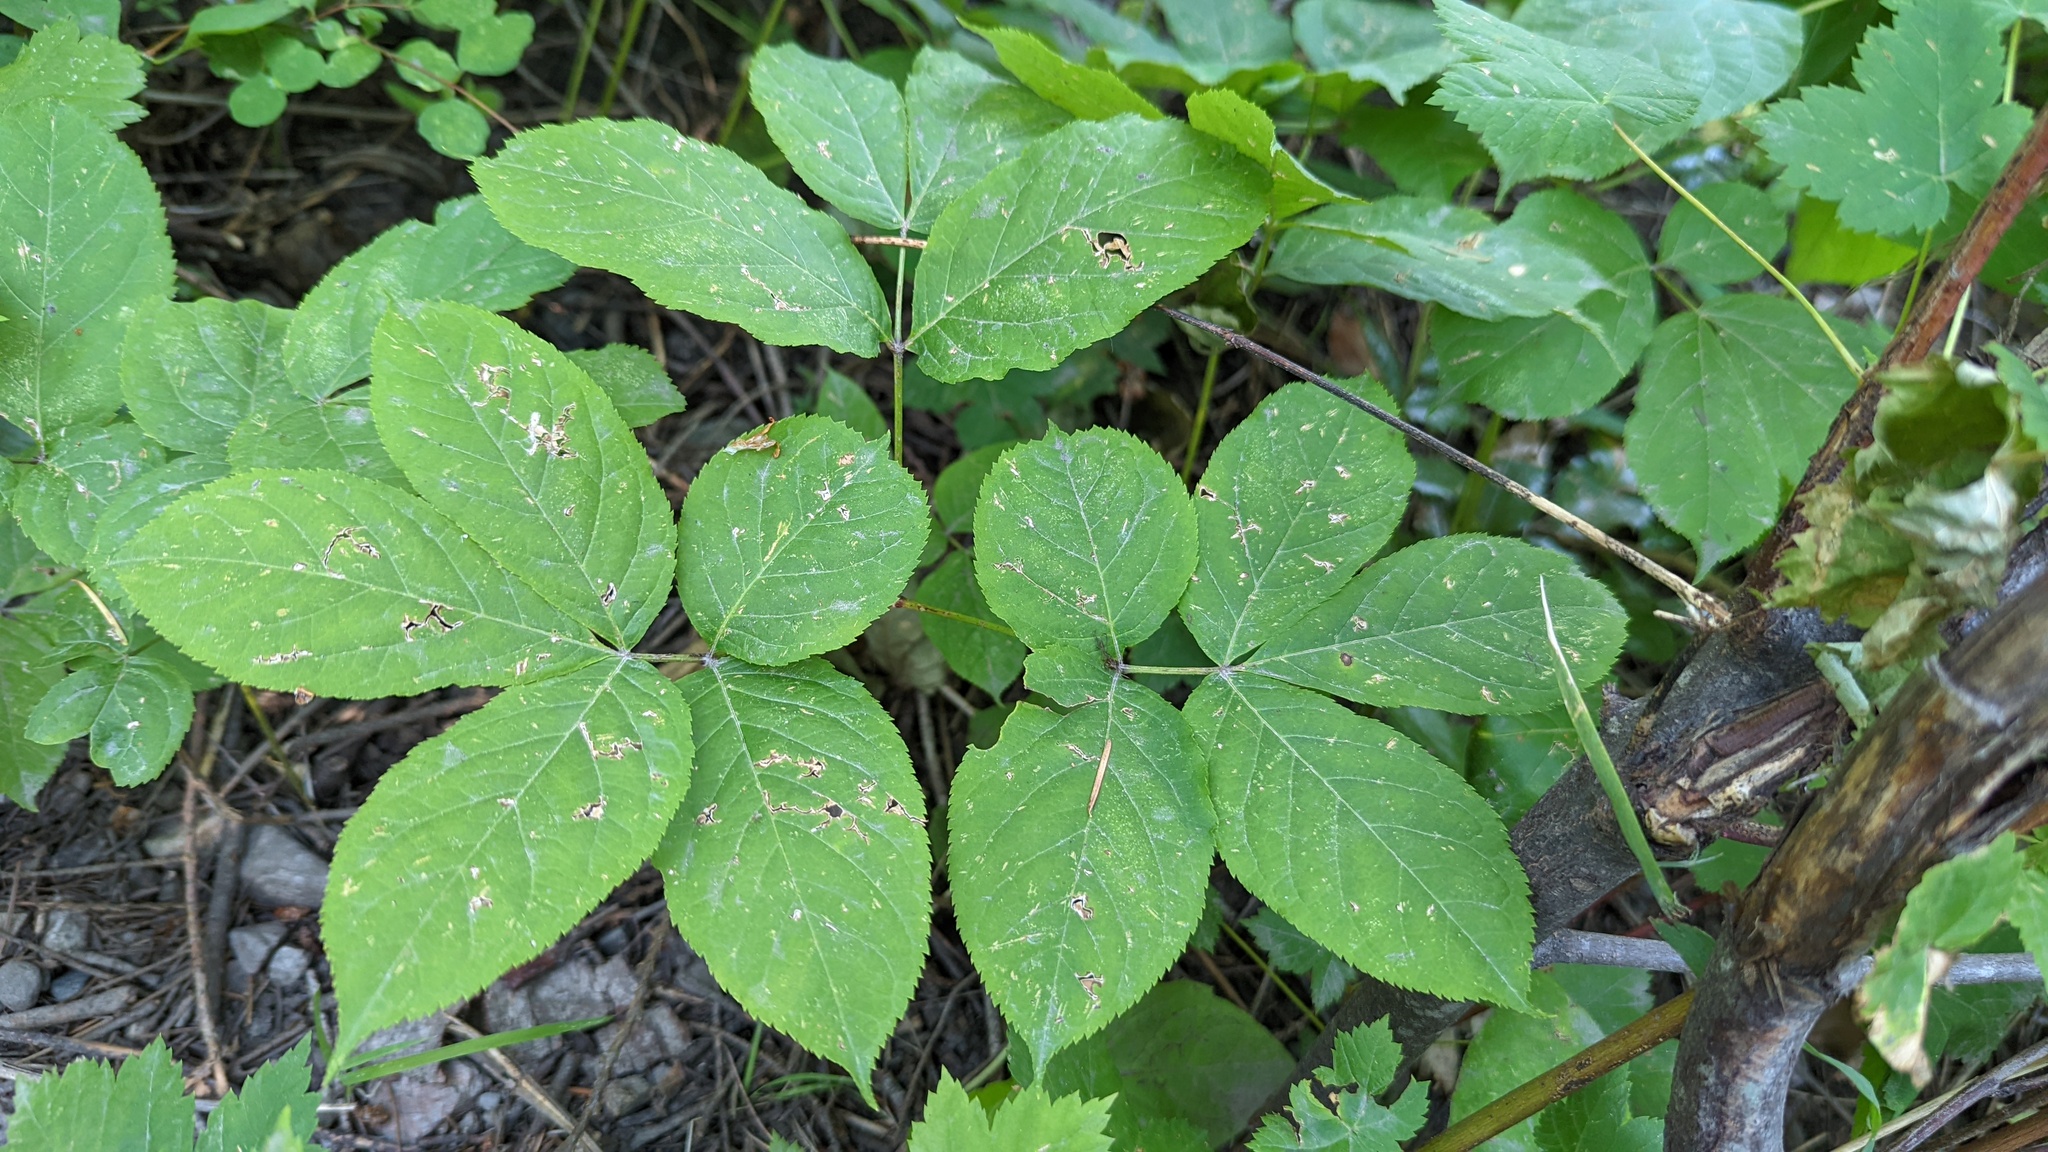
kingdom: Plantae
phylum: Tracheophyta
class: Magnoliopsida
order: Apiales
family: Araliaceae
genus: Aralia
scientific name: Aralia nudicaulis
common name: Wild sarsaparilla
